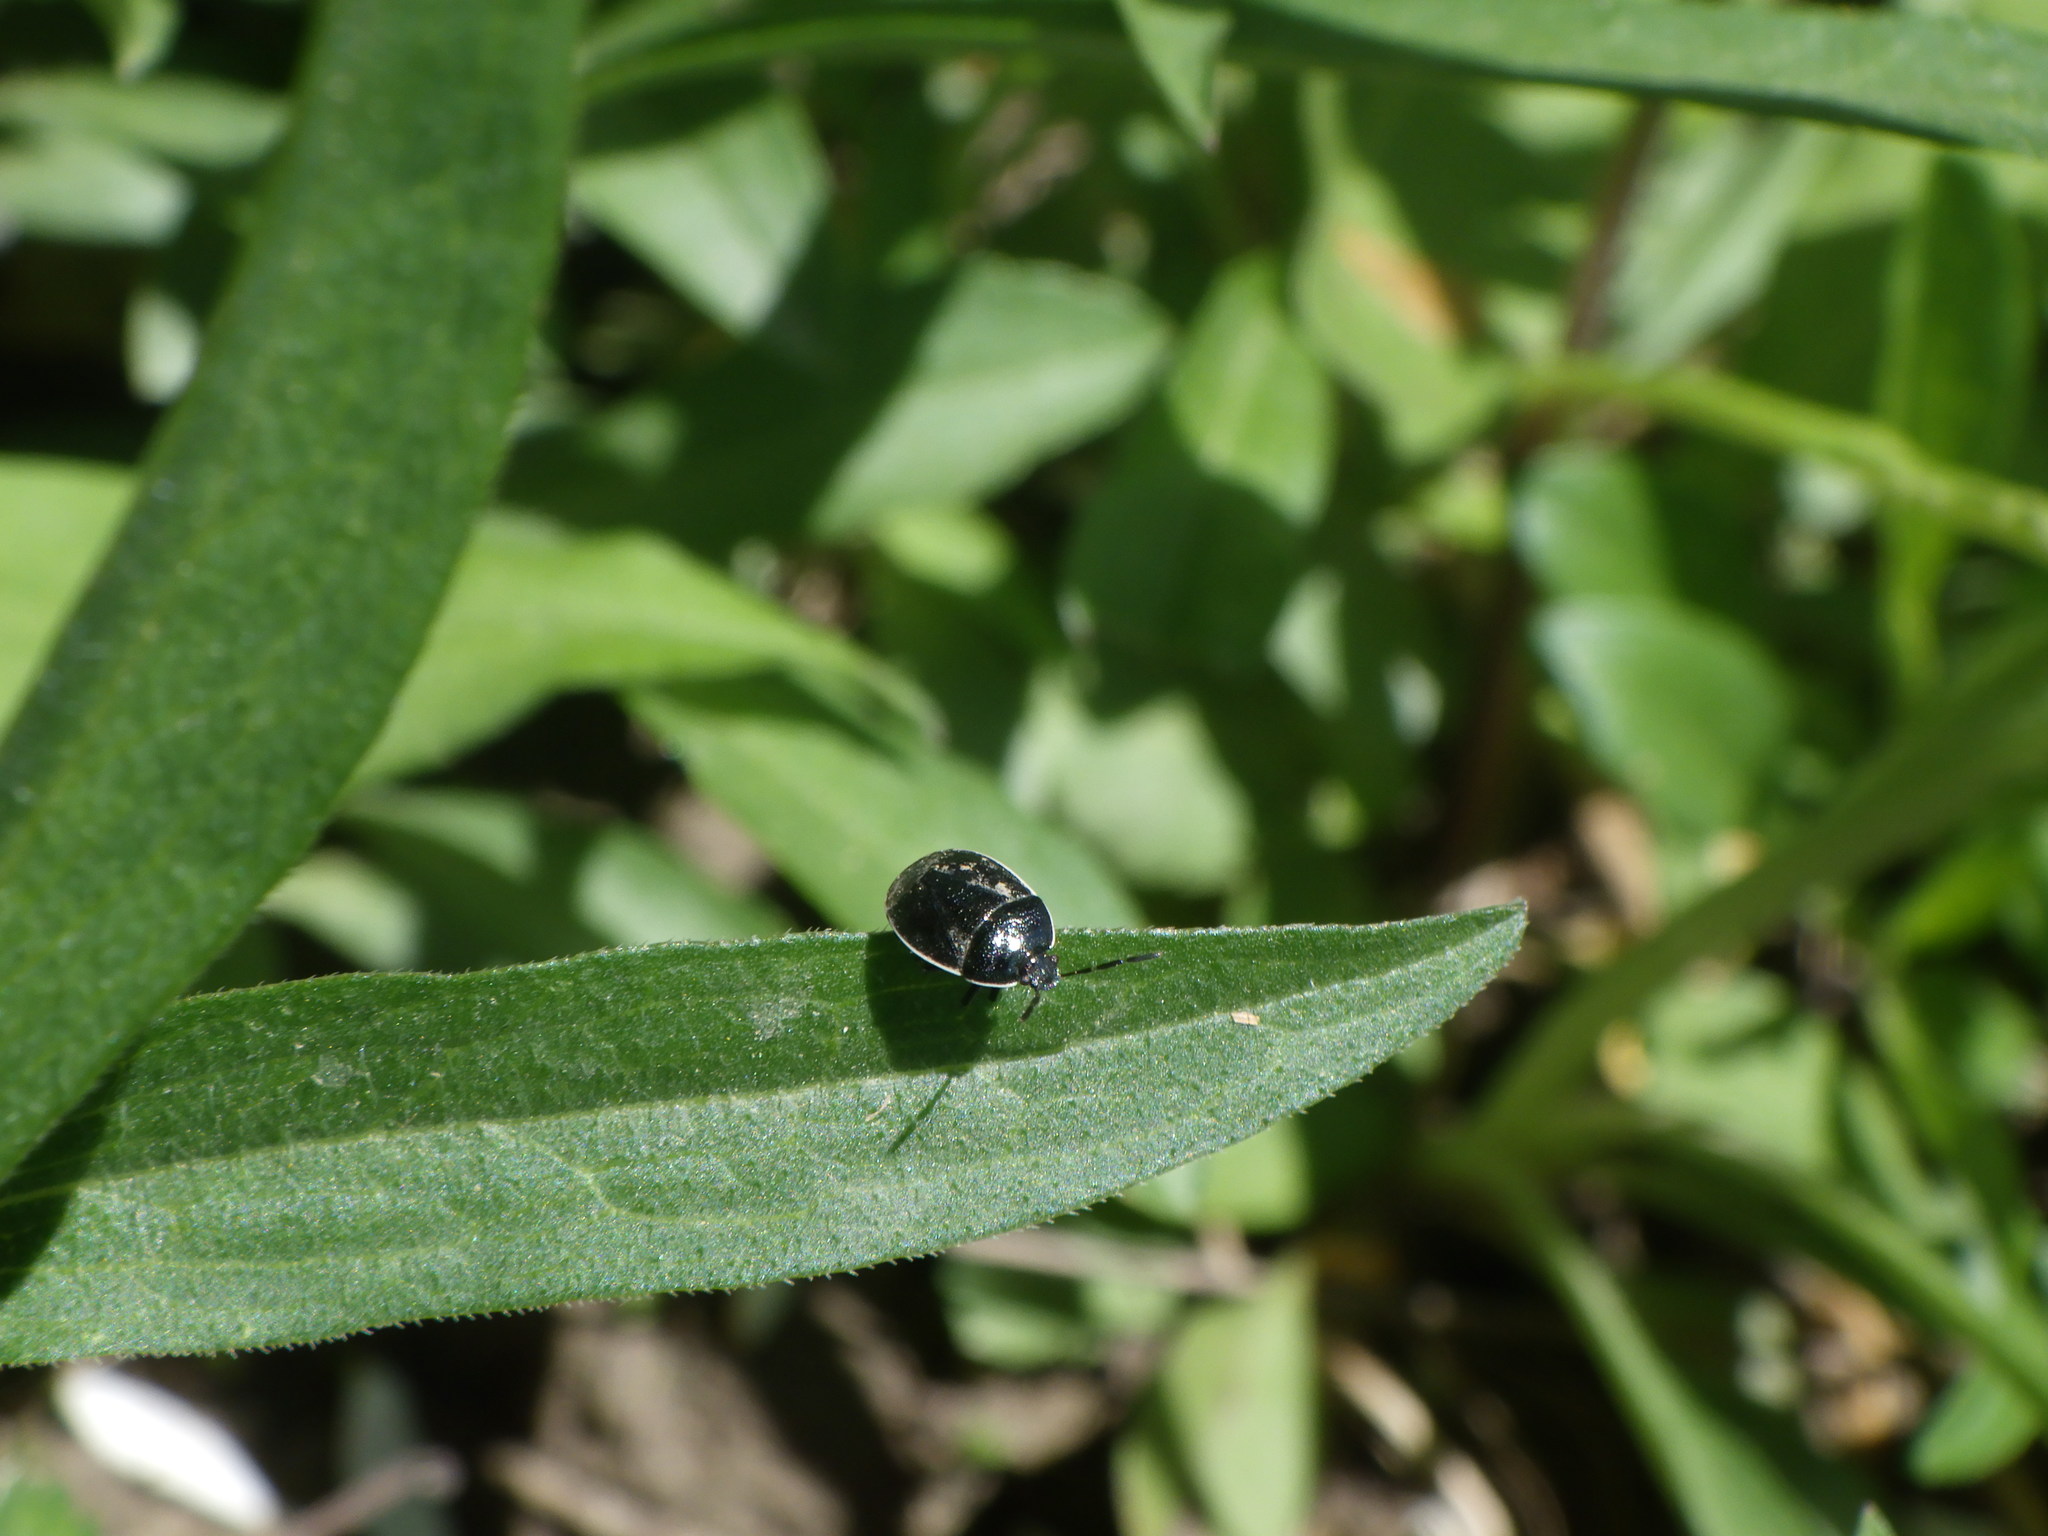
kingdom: Animalia
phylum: Arthropoda
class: Insecta
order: Hemiptera
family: Cydnidae
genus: Sehirus
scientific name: Sehirus cinctus
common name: White-margined burrower bug
